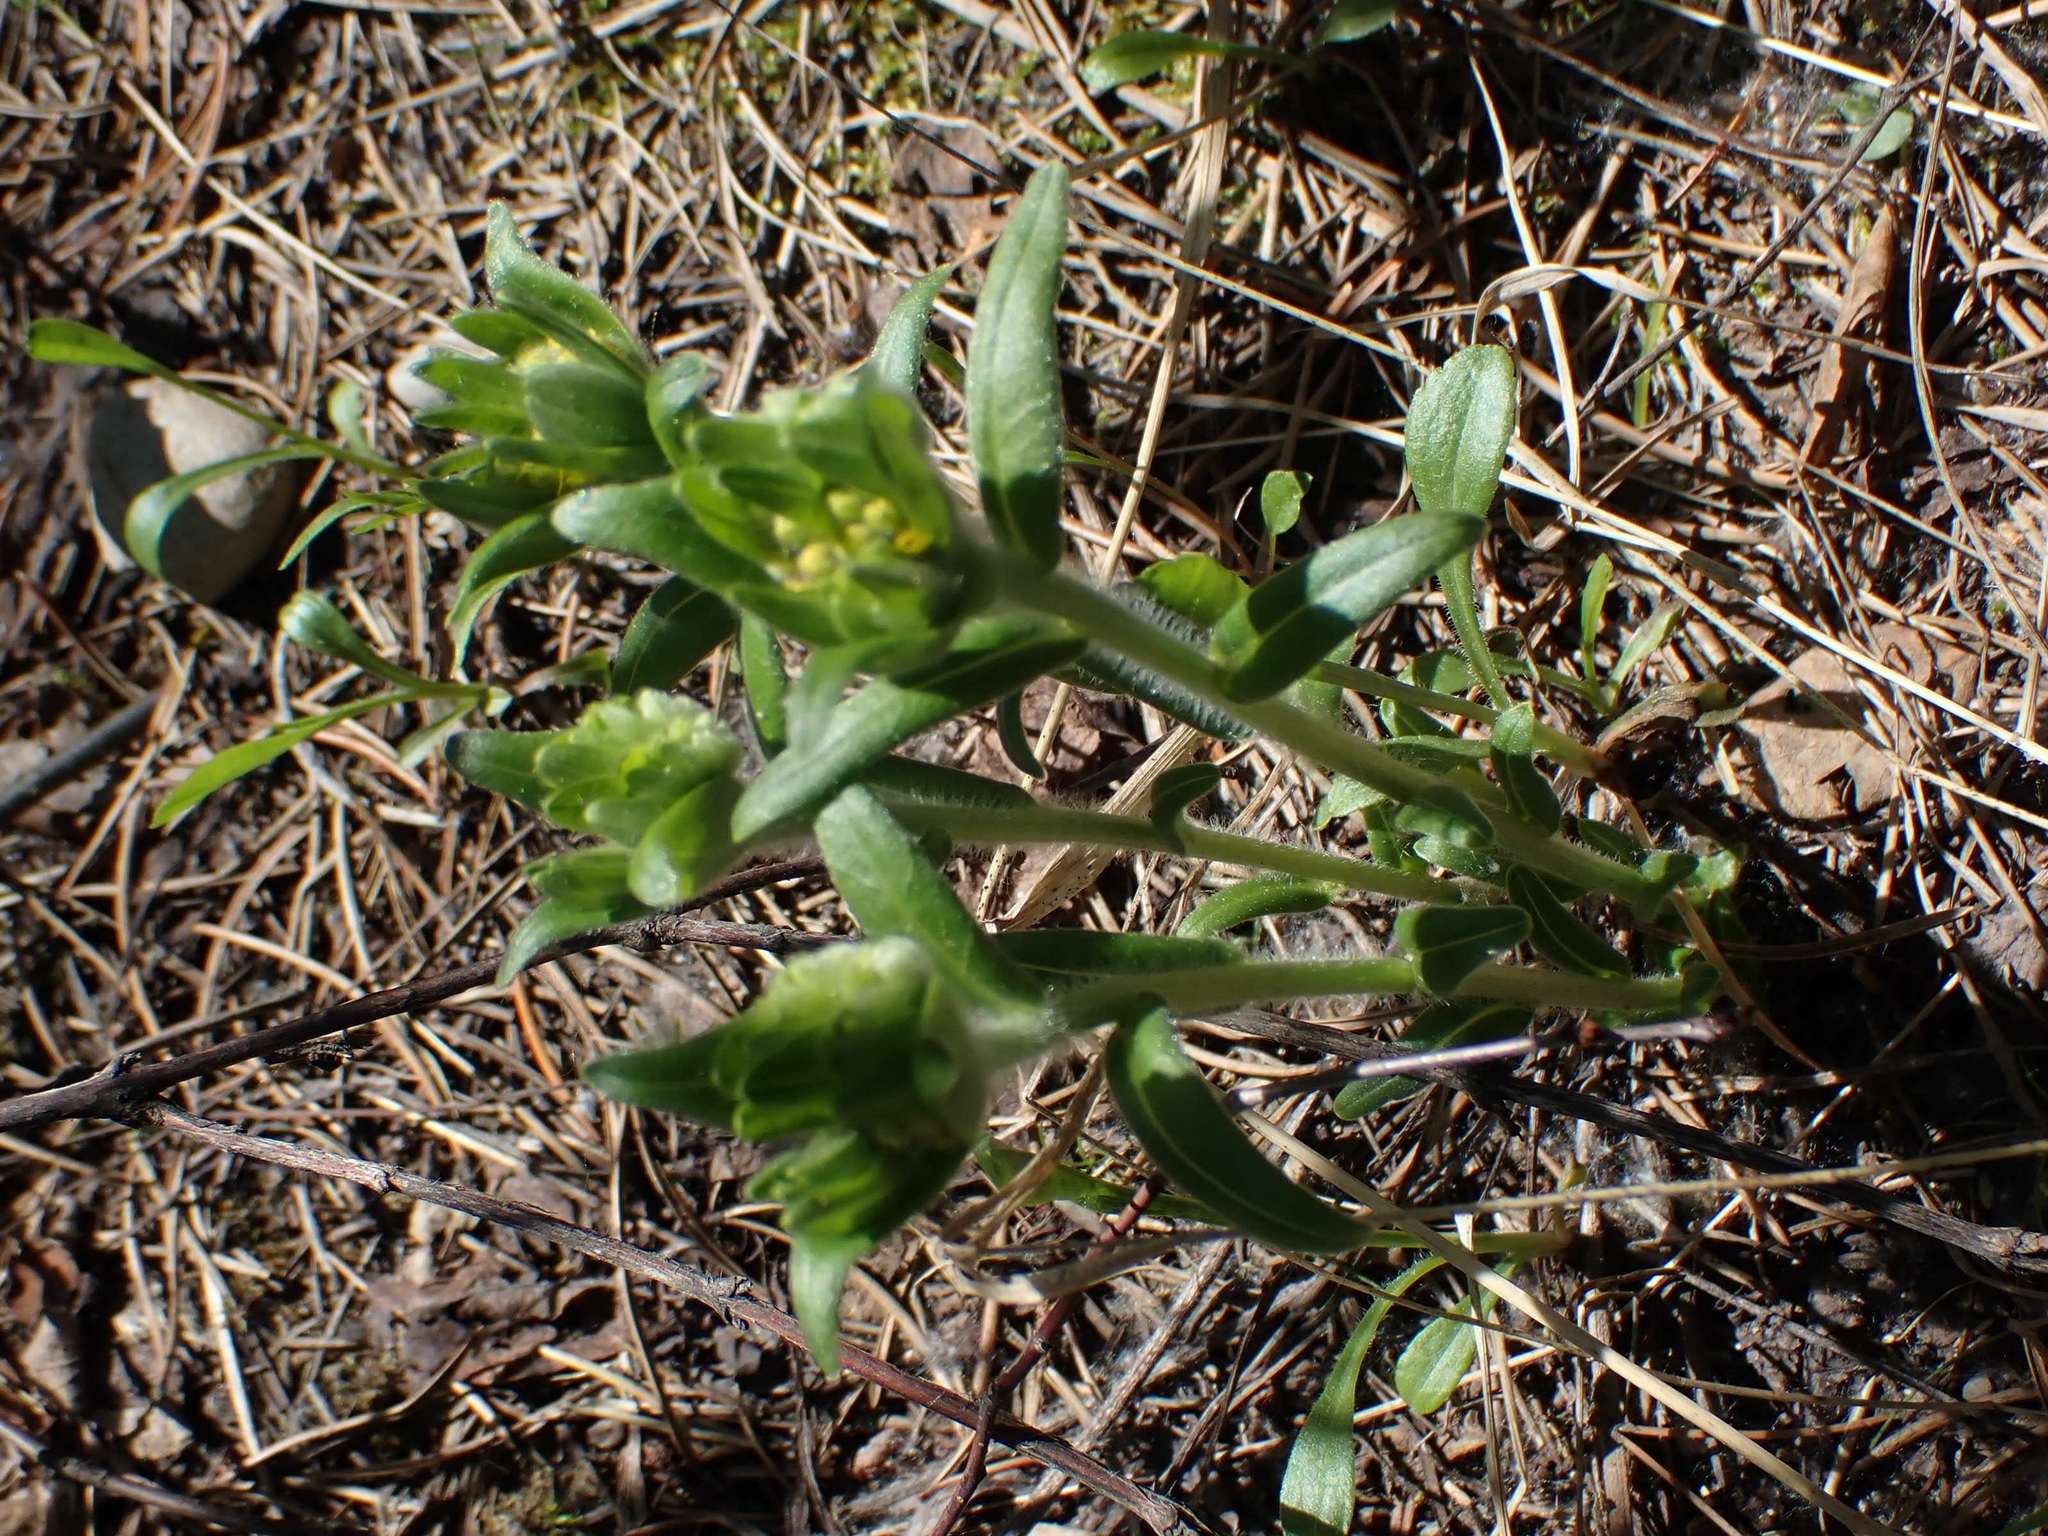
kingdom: Plantae
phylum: Tracheophyta
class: Magnoliopsida
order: Boraginales
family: Boraginaceae
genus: Lithospermum
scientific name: Lithospermum canescens
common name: Hoary puccoon
